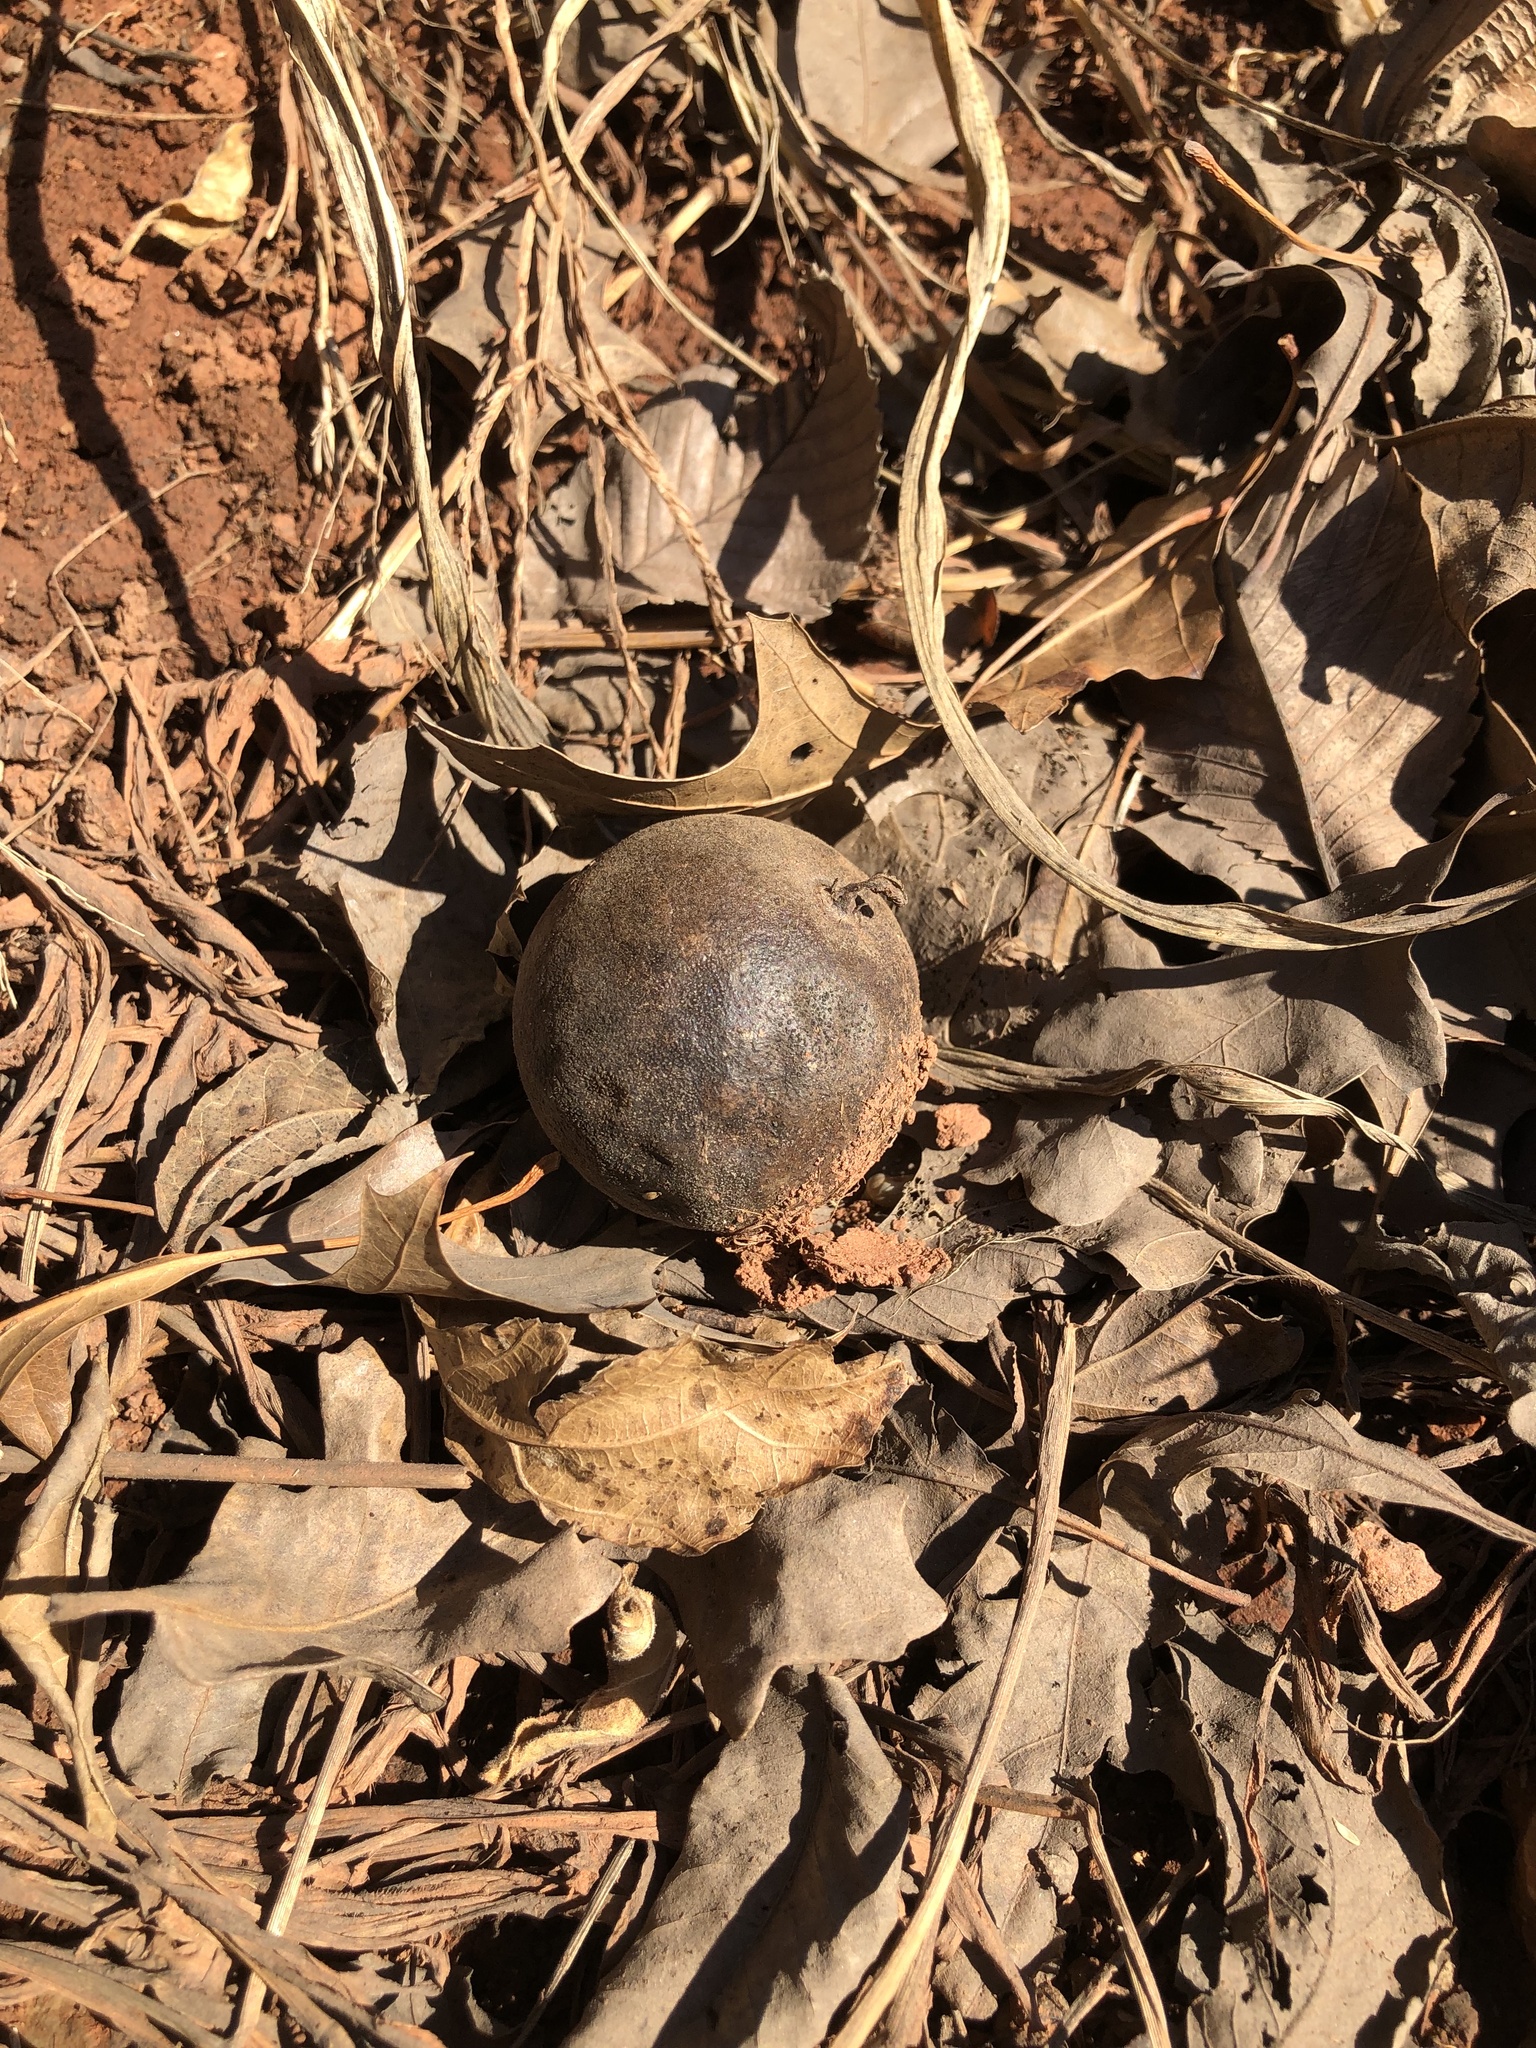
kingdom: Plantae
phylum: Tracheophyta
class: Magnoliopsida
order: Fagales
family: Juglandaceae
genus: Juglans
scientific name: Juglans nigra
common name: Black walnut
